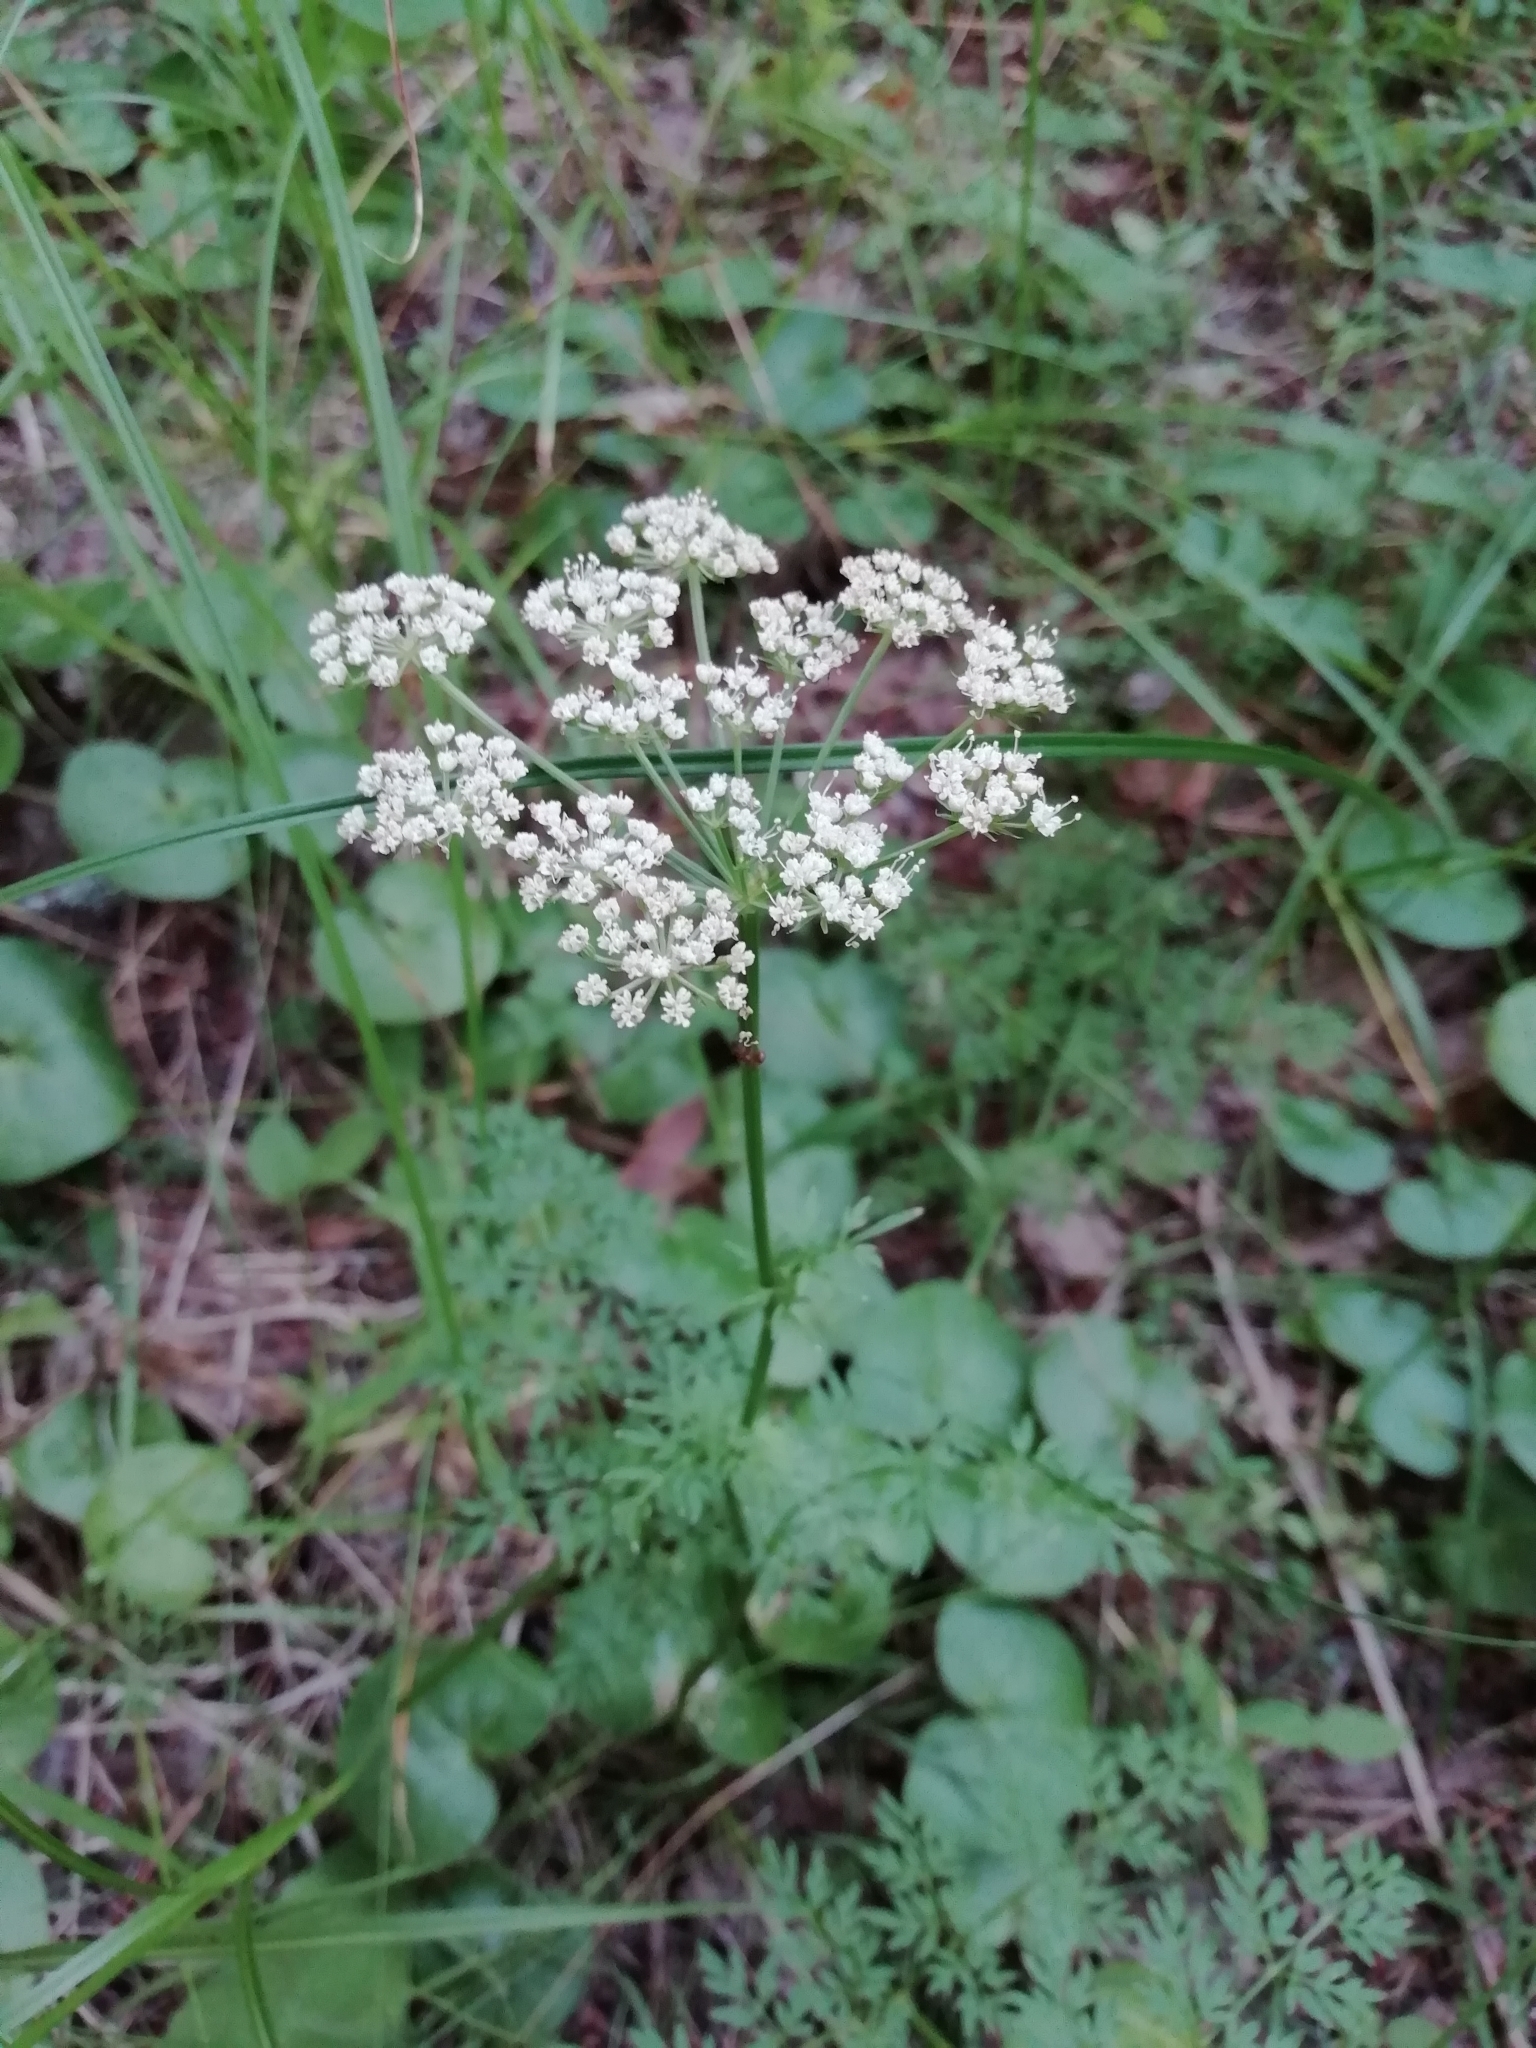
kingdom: Plantae
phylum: Tracheophyta
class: Magnoliopsida
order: Apiales
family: Apiaceae
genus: Selinum
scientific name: Selinum carvifolia
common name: Cambridge milk-parsley
